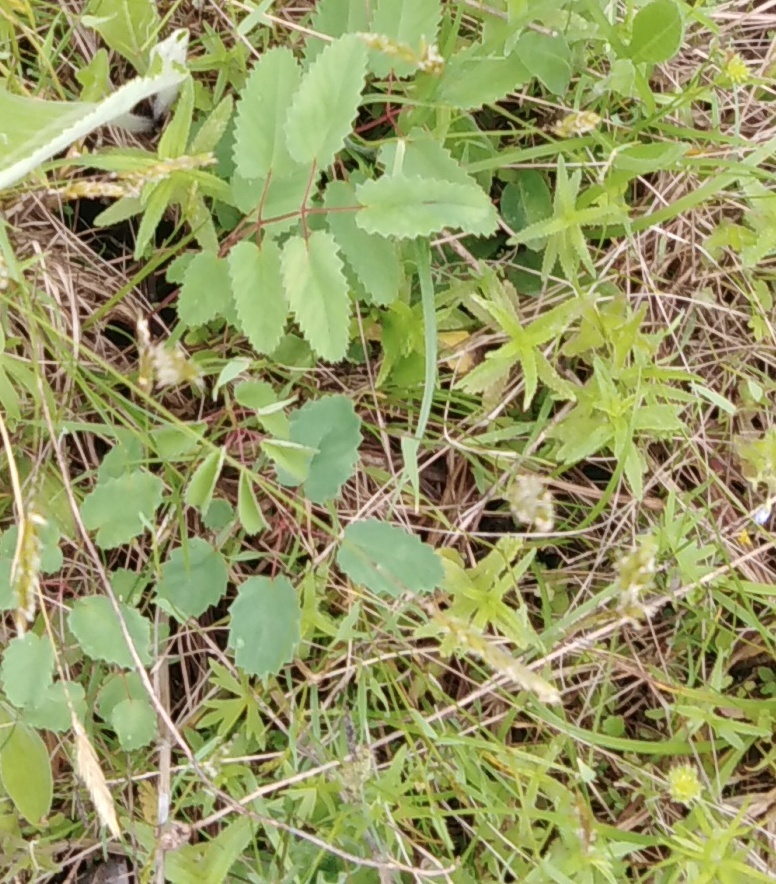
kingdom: Plantae
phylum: Tracheophyta
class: Magnoliopsida
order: Rosales
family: Rosaceae
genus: Sanguisorba
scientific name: Sanguisorba officinalis
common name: Great burnet
